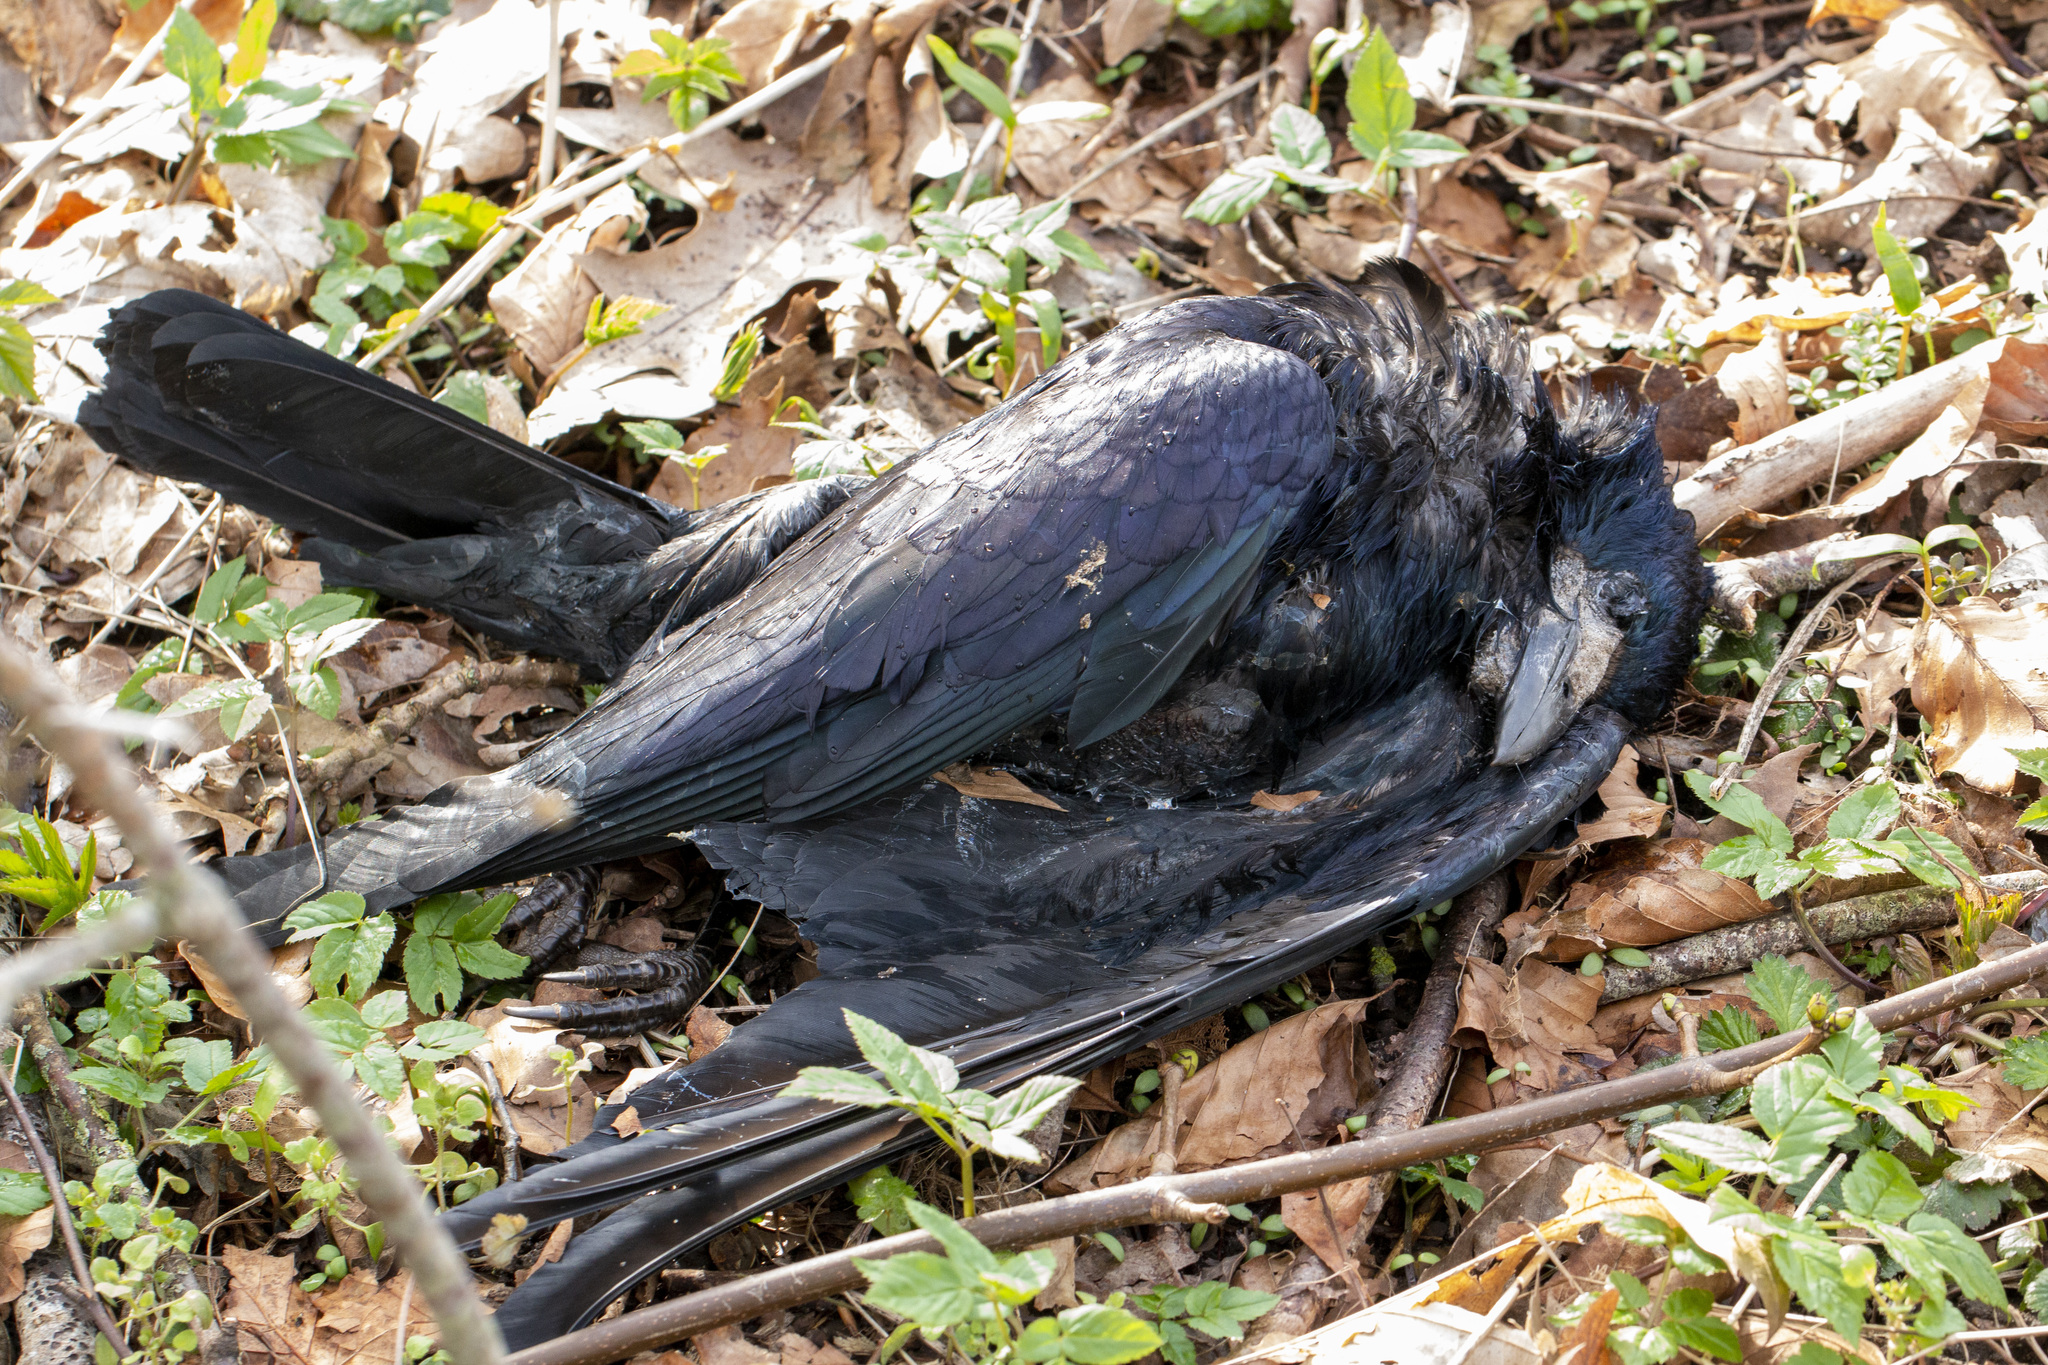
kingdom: Animalia
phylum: Chordata
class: Aves
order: Passeriformes
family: Corvidae
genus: Corvus
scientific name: Corvus frugilegus
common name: Rook
